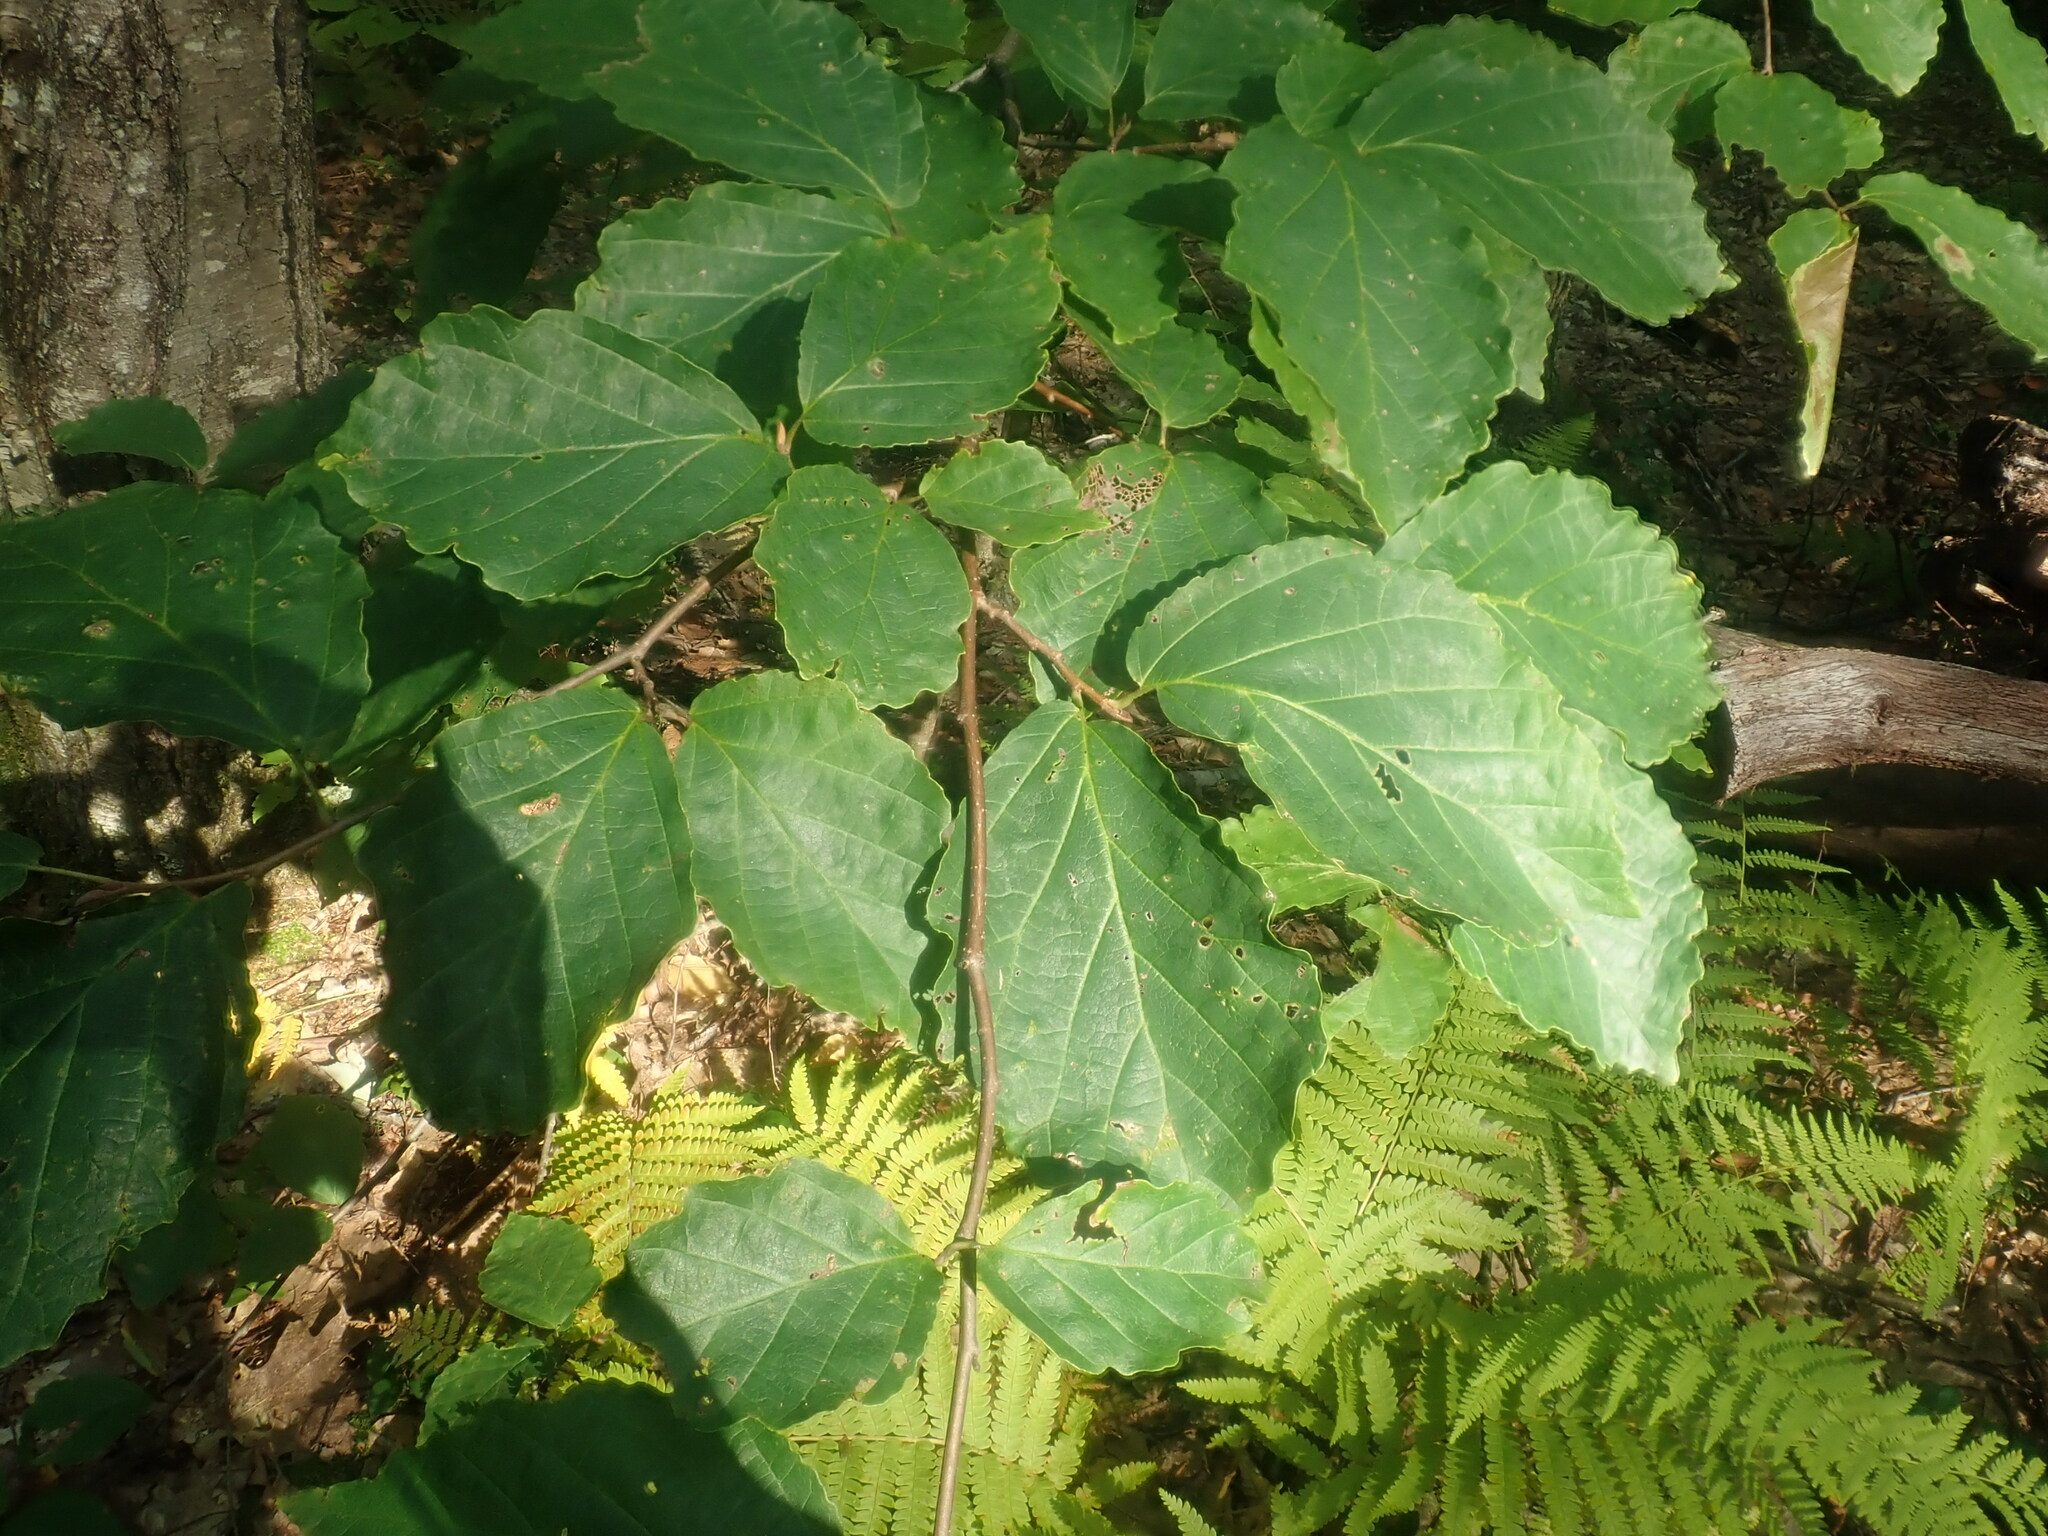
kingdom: Plantae
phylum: Tracheophyta
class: Magnoliopsida
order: Saxifragales
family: Hamamelidaceae
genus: Hamamelis
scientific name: Hamamelis virginiana
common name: Witch-hazel
